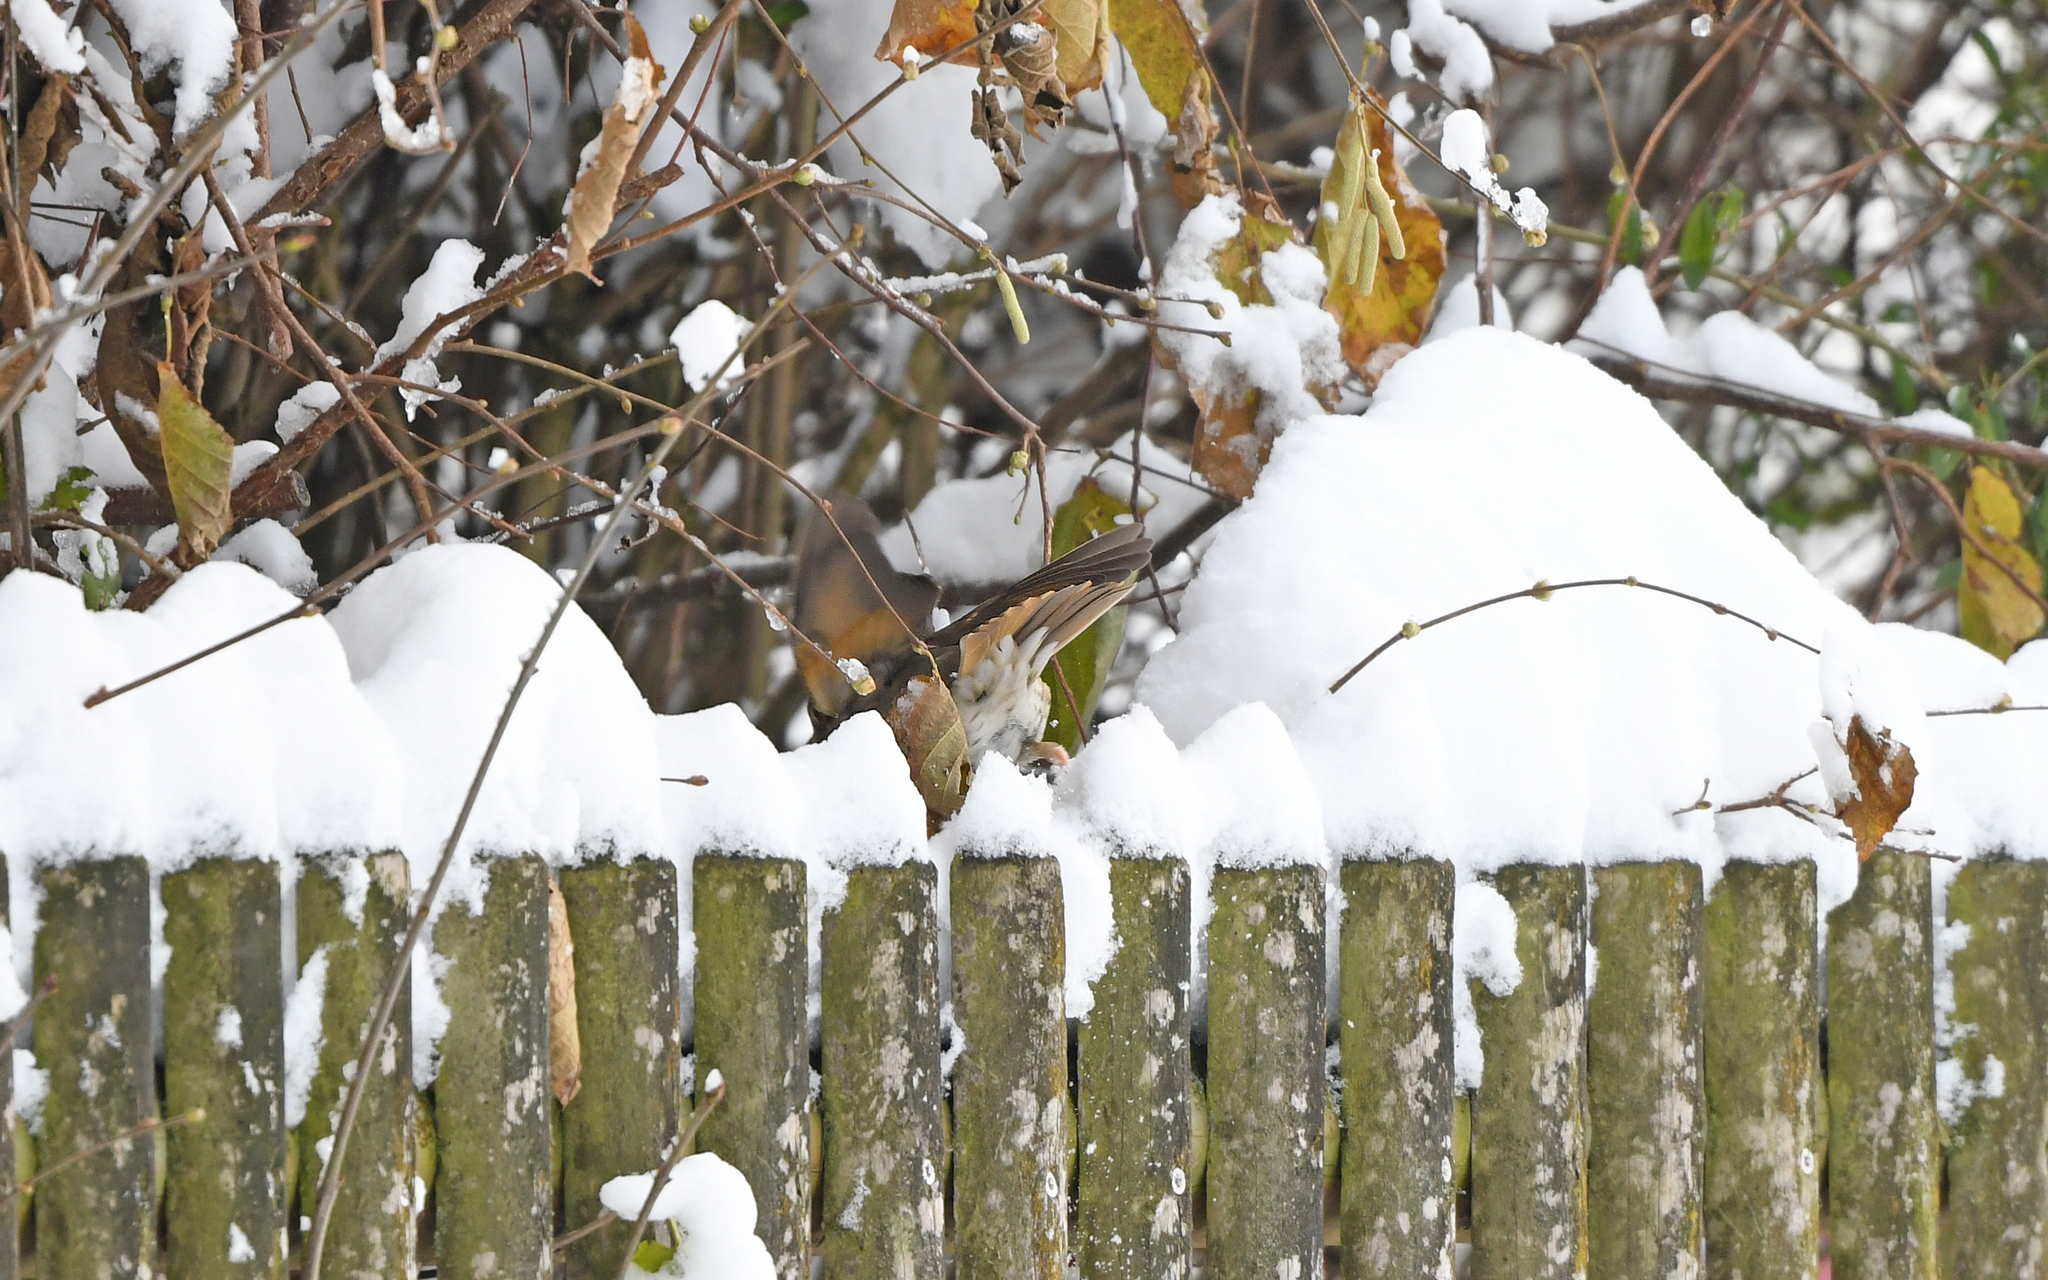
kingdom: Animalia
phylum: Chordata
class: Aves
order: Passeriformes
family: Turdidae
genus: Turdus
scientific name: Turdus philomelos
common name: Song thrush
